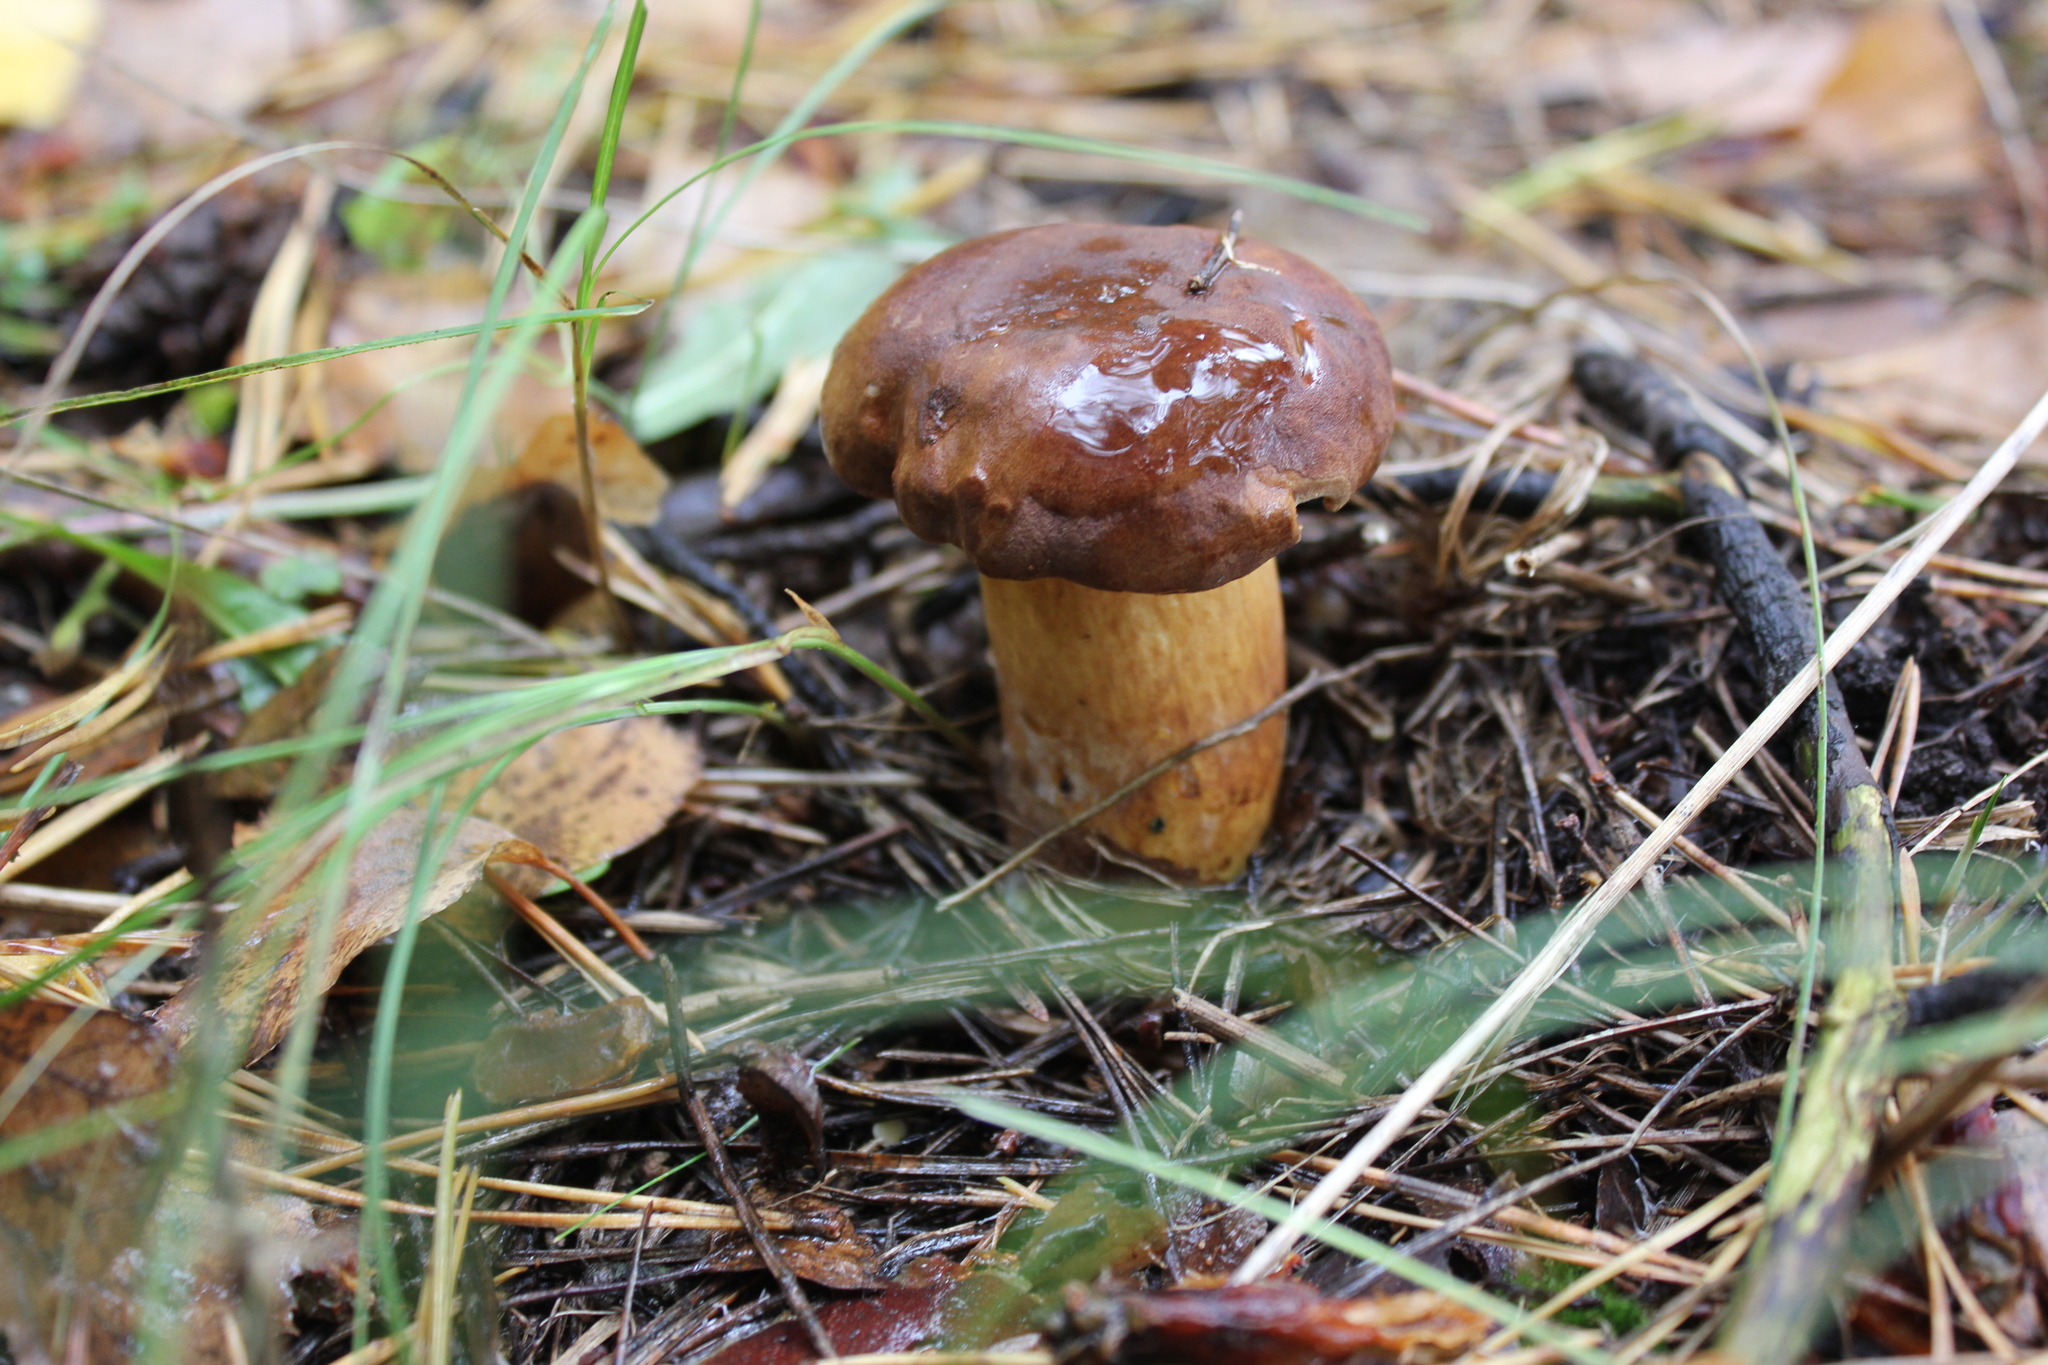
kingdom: Fungi
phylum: Basidiomycota
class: Agaricomycetes
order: Boletales
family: Boletaceae
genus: Imleria
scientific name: Imleria badia
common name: Bay bolete
